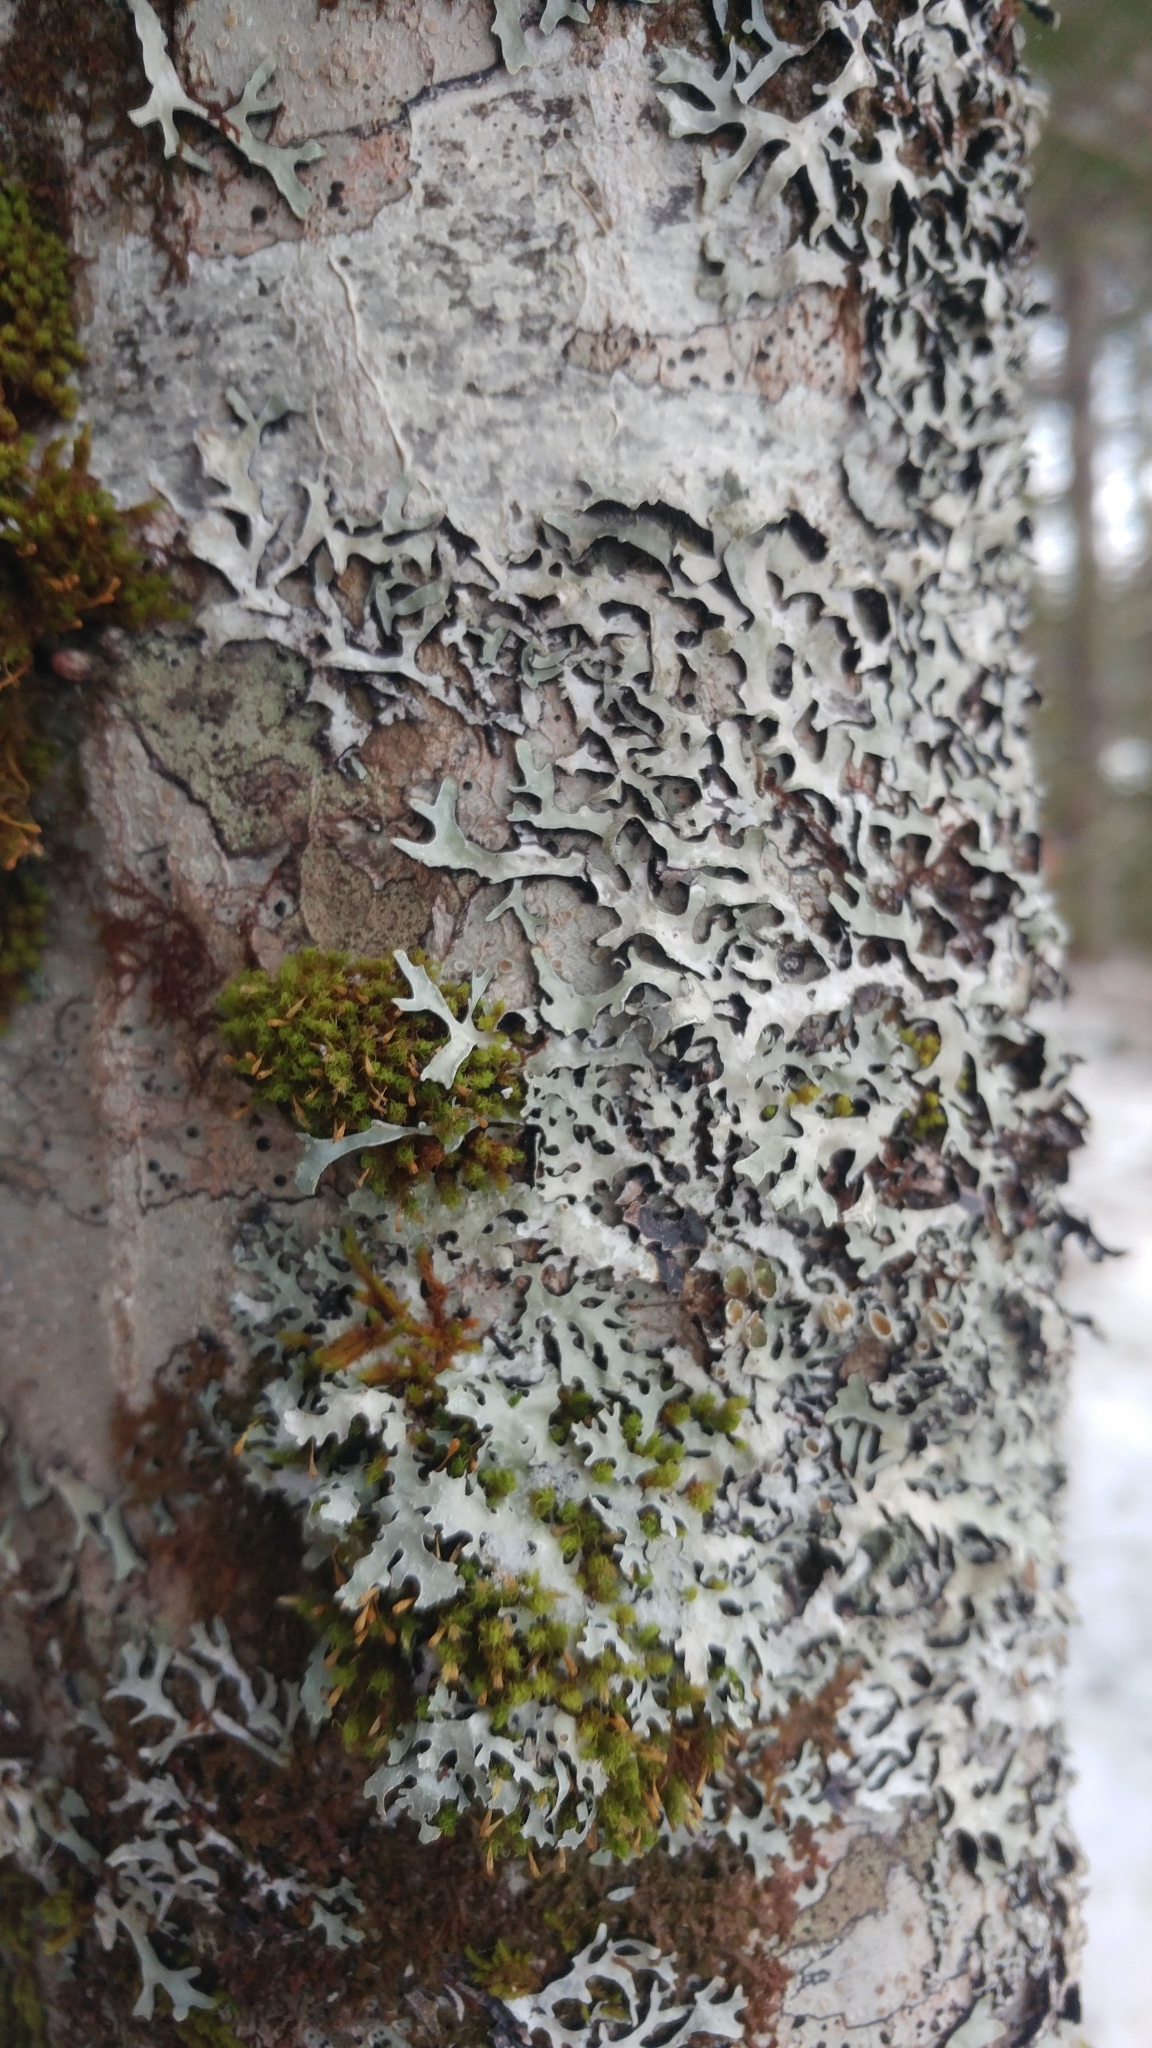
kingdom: Fungi
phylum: Ascomycota
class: Lecanoromycetes
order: Lecanorales
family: Parmeliaceae
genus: Parmelia
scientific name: Parmelia squarrosa
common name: Bottle brush shield lichen
